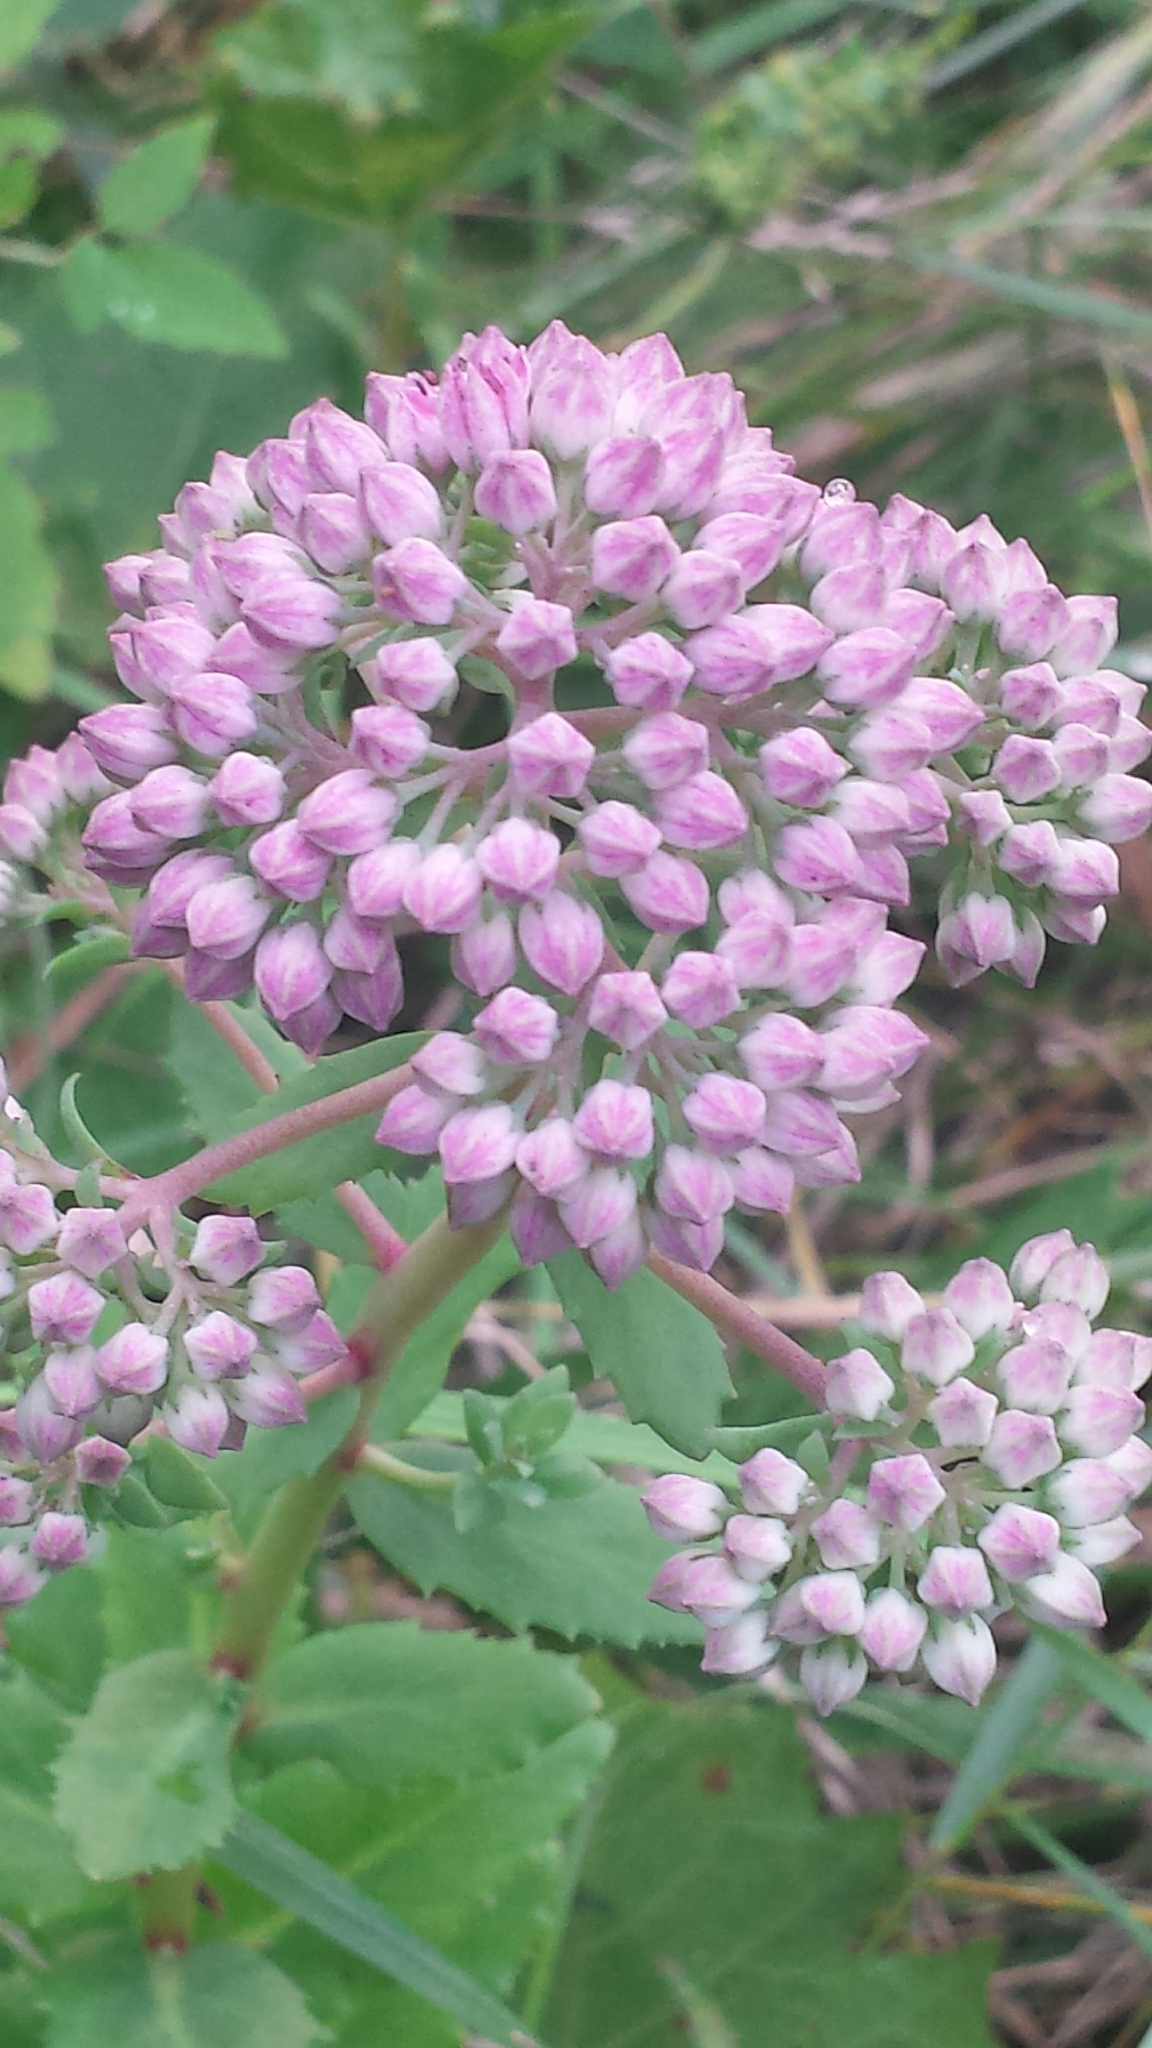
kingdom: Plantae
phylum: Tracheophyta
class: Magnoliopsida
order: Saxifragales
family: Crassulaceae
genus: Hylotelephium
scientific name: Hylotelephium telephium
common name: Live-forever
